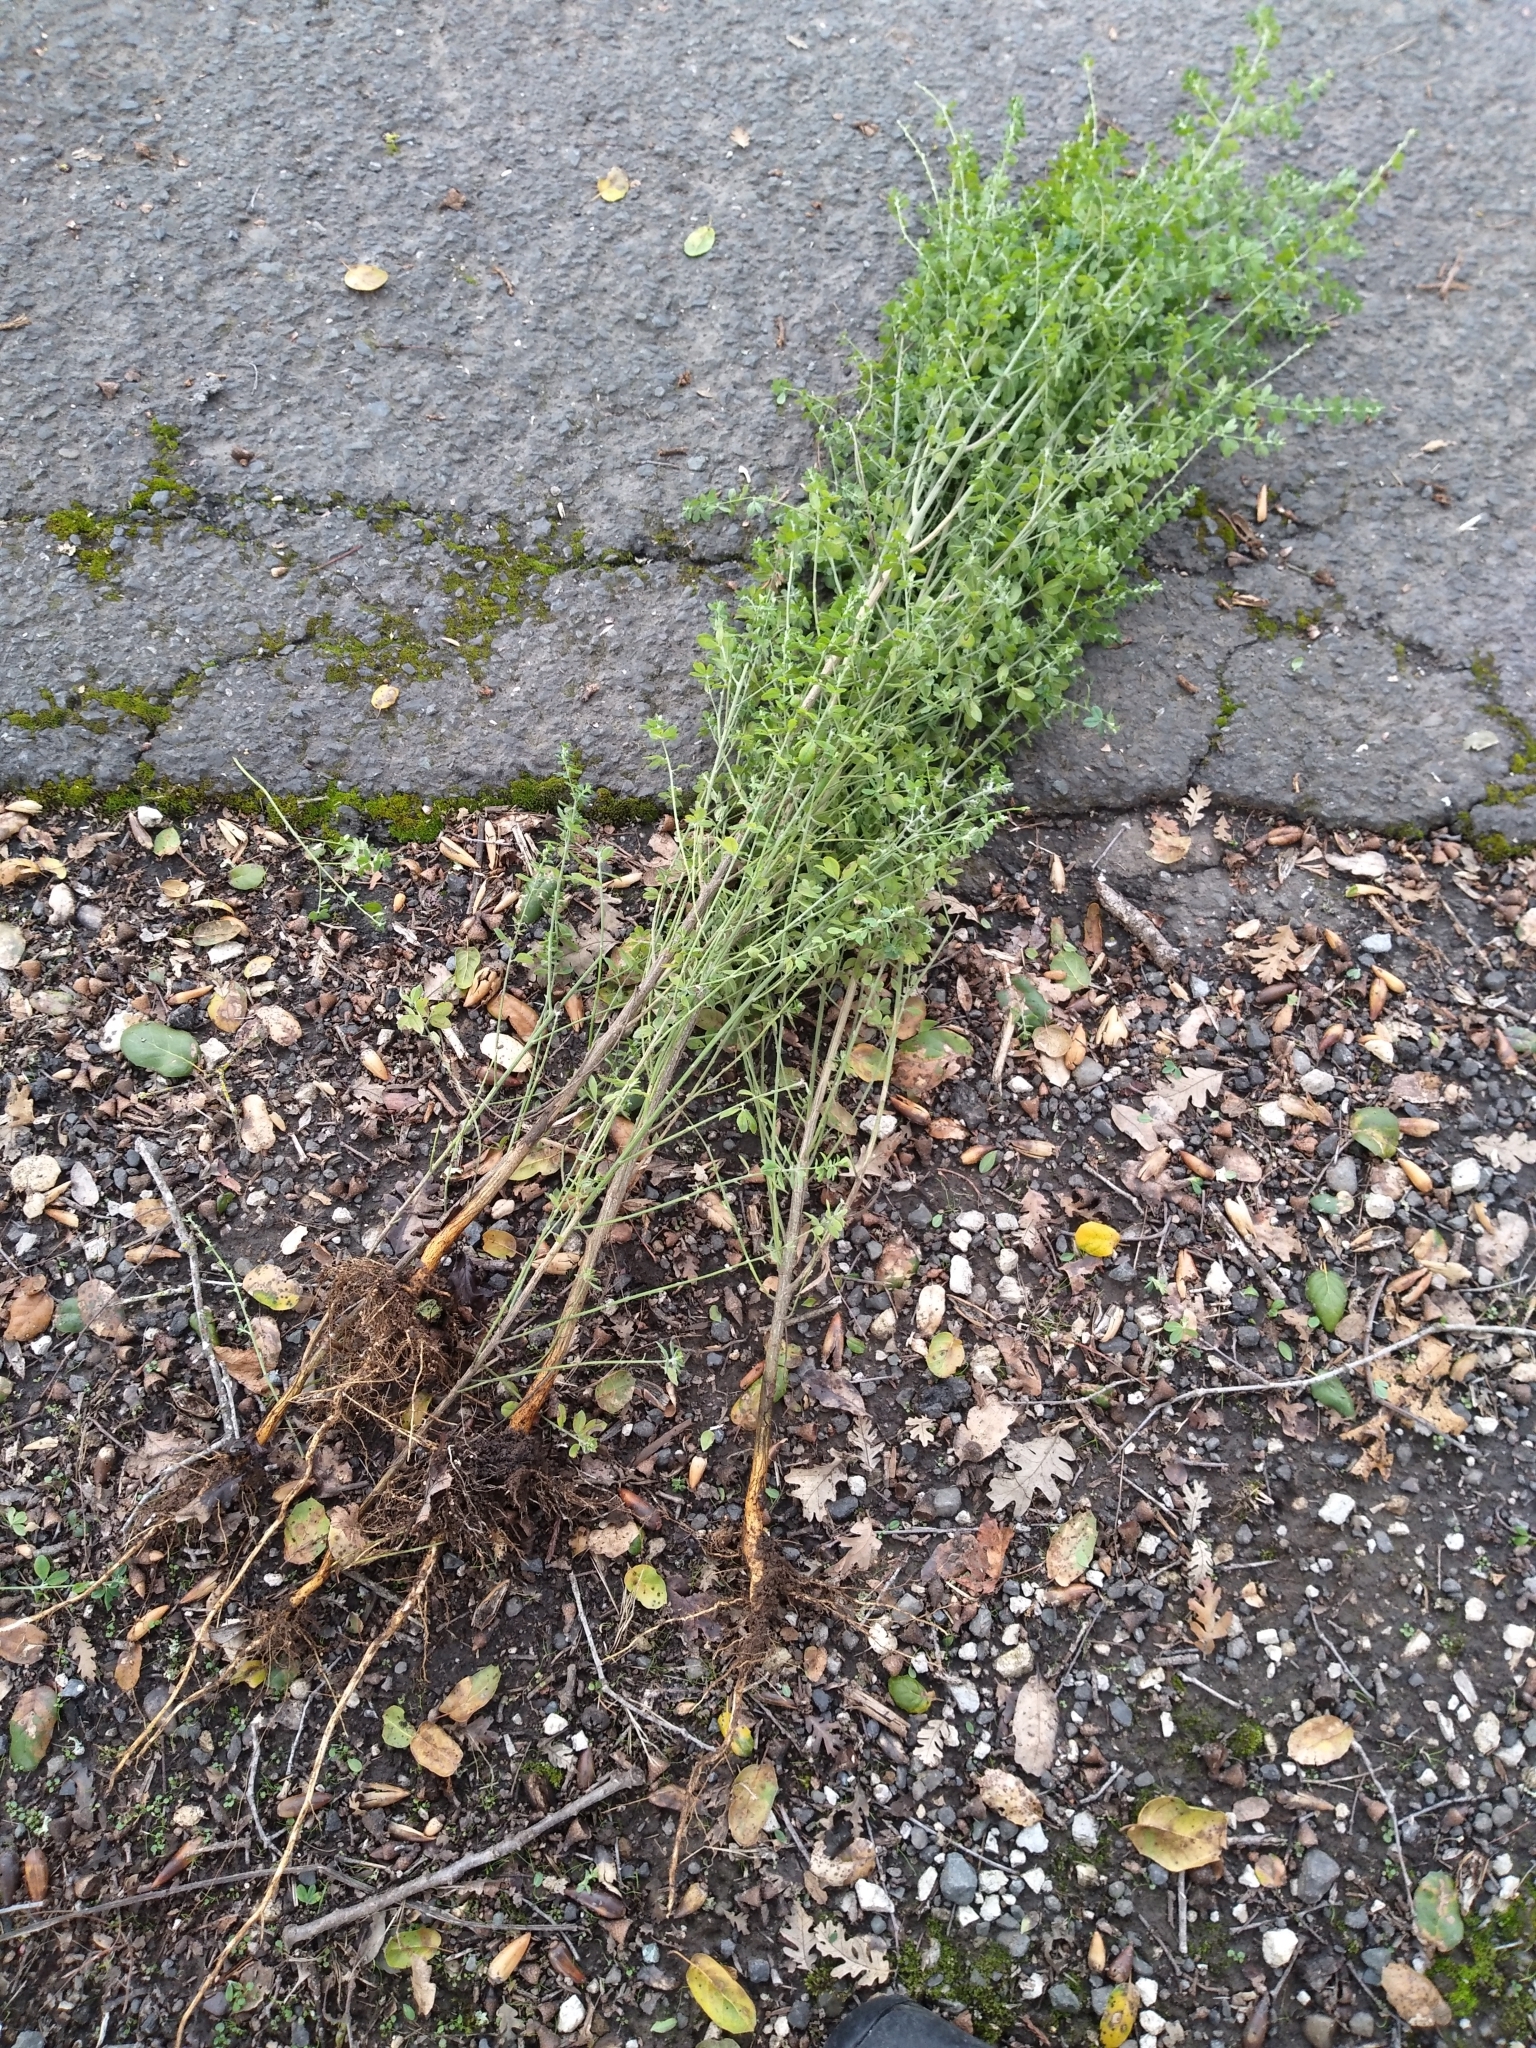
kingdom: Plantae
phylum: Tracheophyta
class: Magnoliopsida
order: Fabales
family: Fabaceae
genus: Genista
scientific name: Genista monspessulana
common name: Montpellier broom
